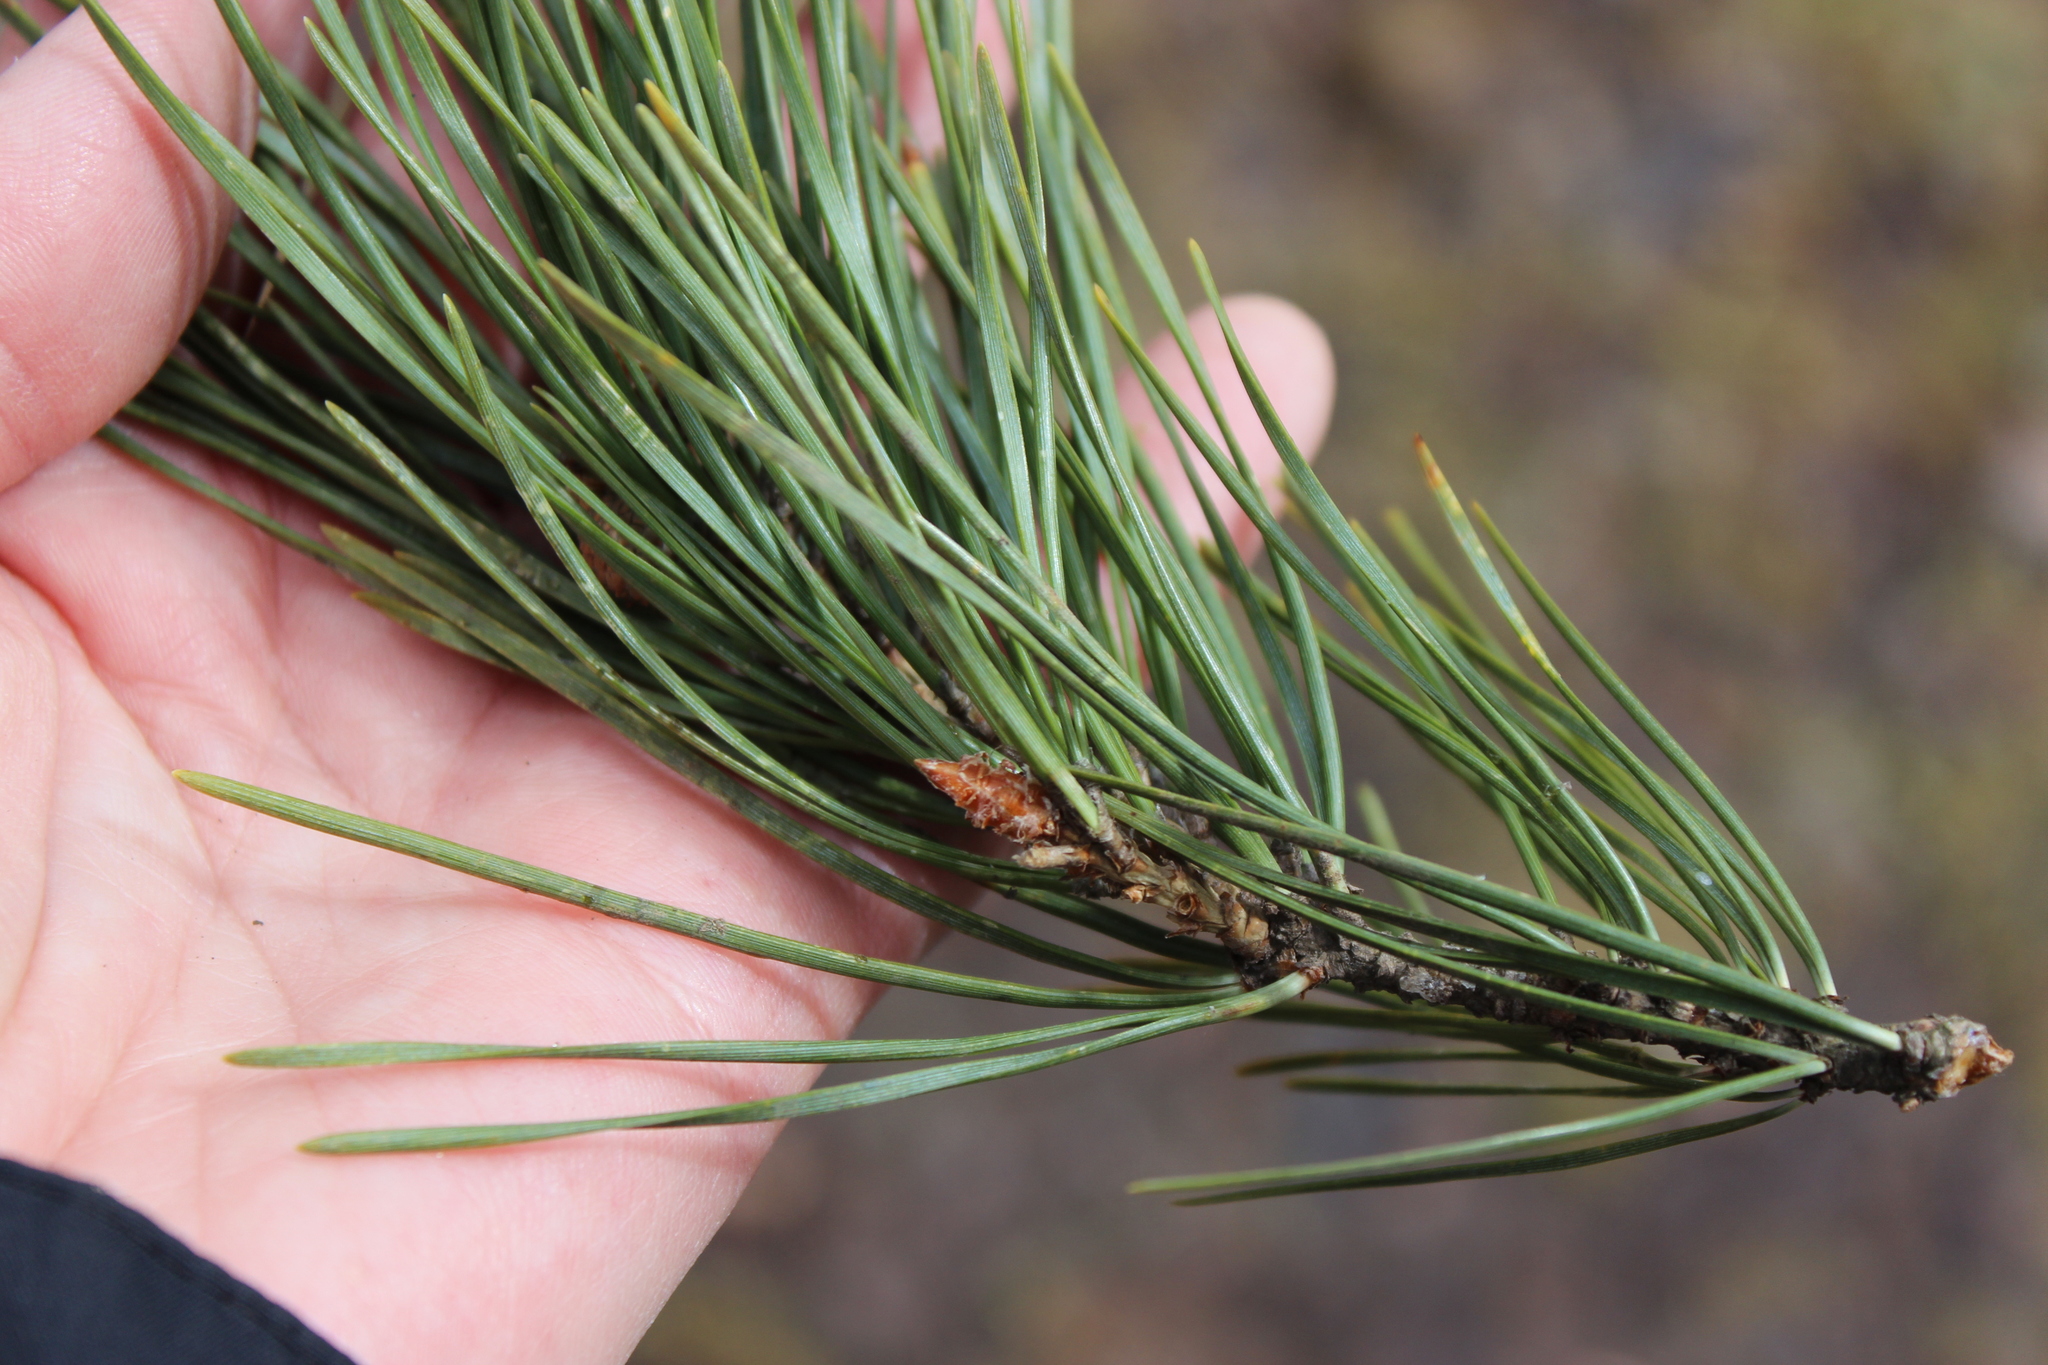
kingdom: Plantae
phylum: Tracheophyta
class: Pinopsida
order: Pinales
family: Pinaceae
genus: Pinus
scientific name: Pinus sylvestris
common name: Scots pine
